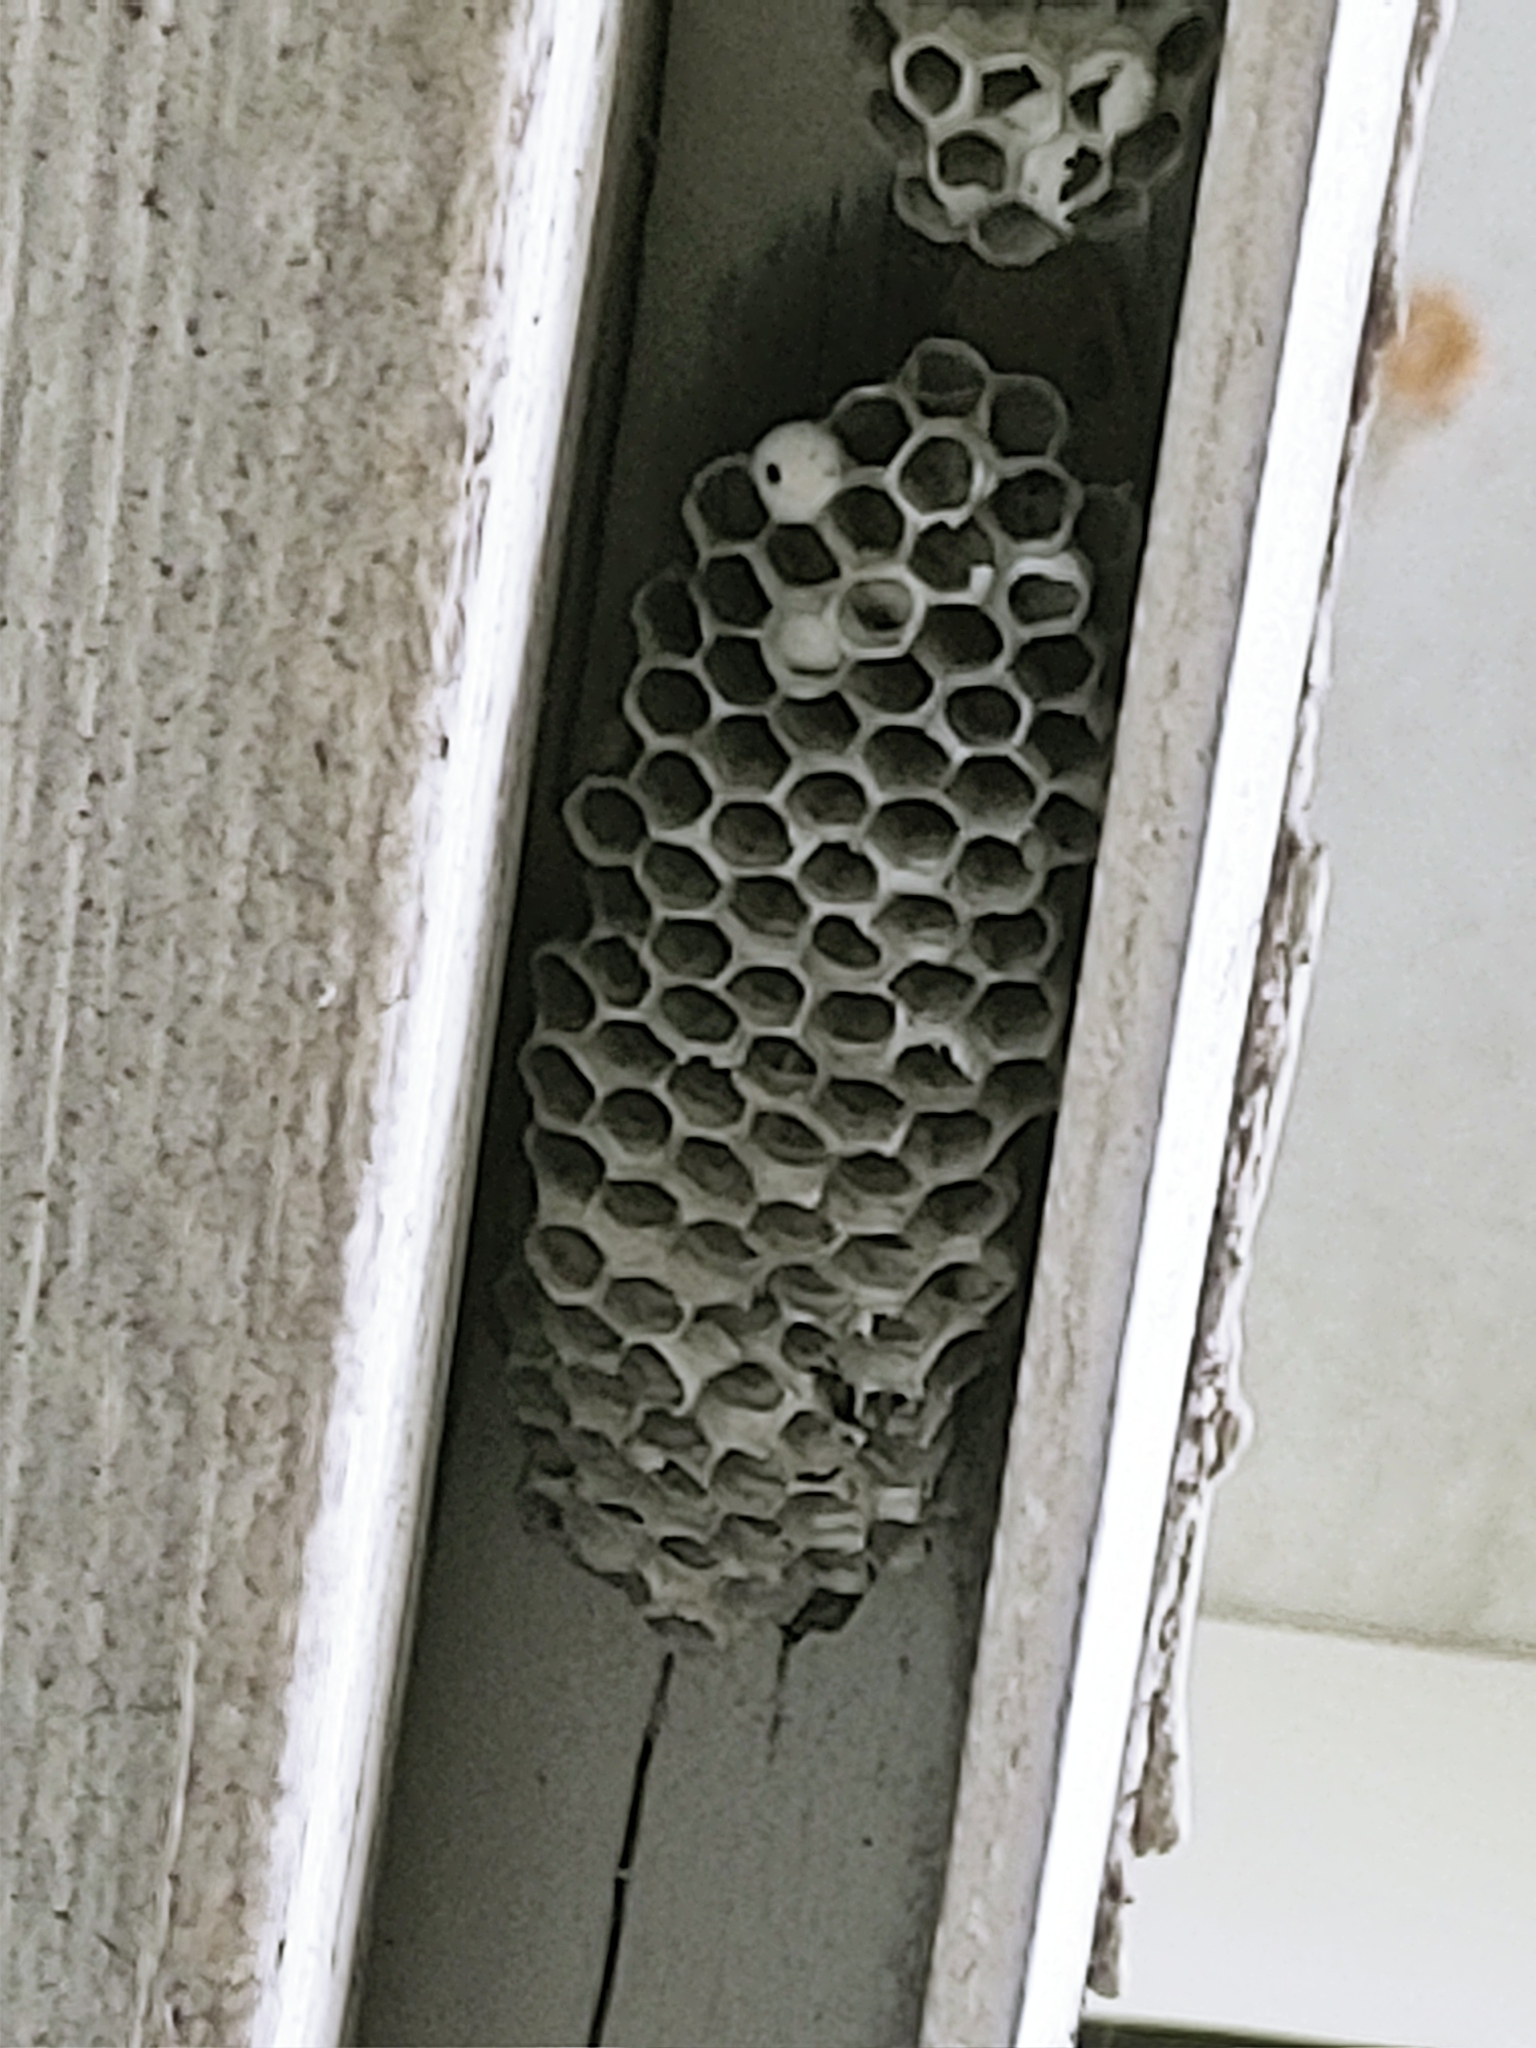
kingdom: Animalia
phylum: Arthropoda
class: Insecta
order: Hymenoptera
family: Eumenidae
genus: Polistes
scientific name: Polistes
